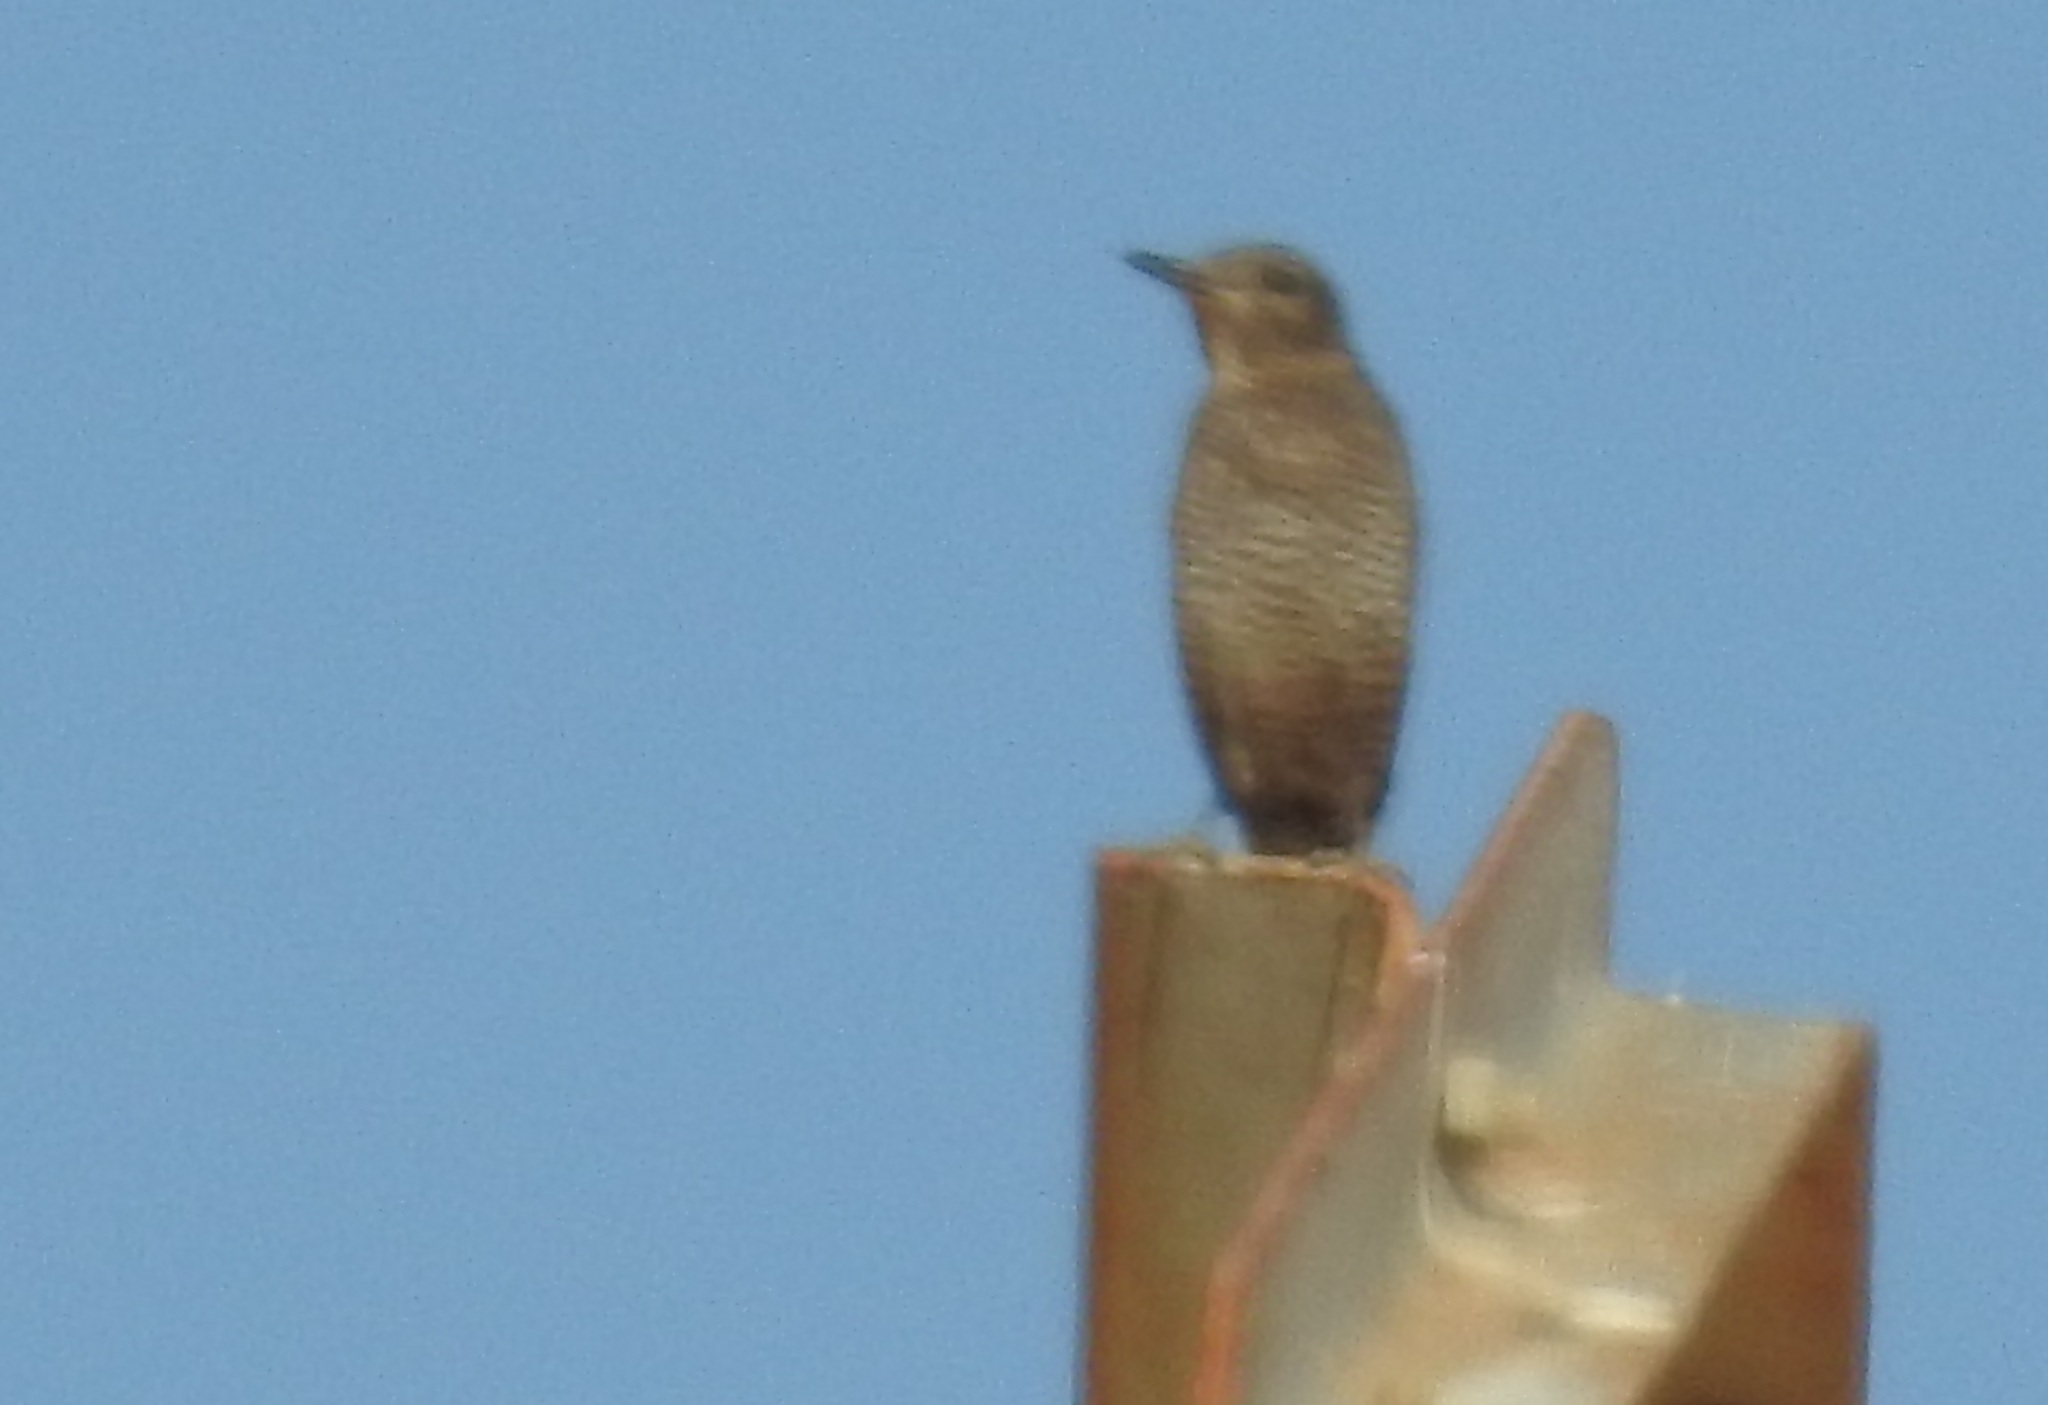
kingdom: Animalia
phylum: Chordata
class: Aves
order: Passeriformes
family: Muscicapidae
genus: Monticola
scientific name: Monticola solitarius
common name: Blue rock thrush
